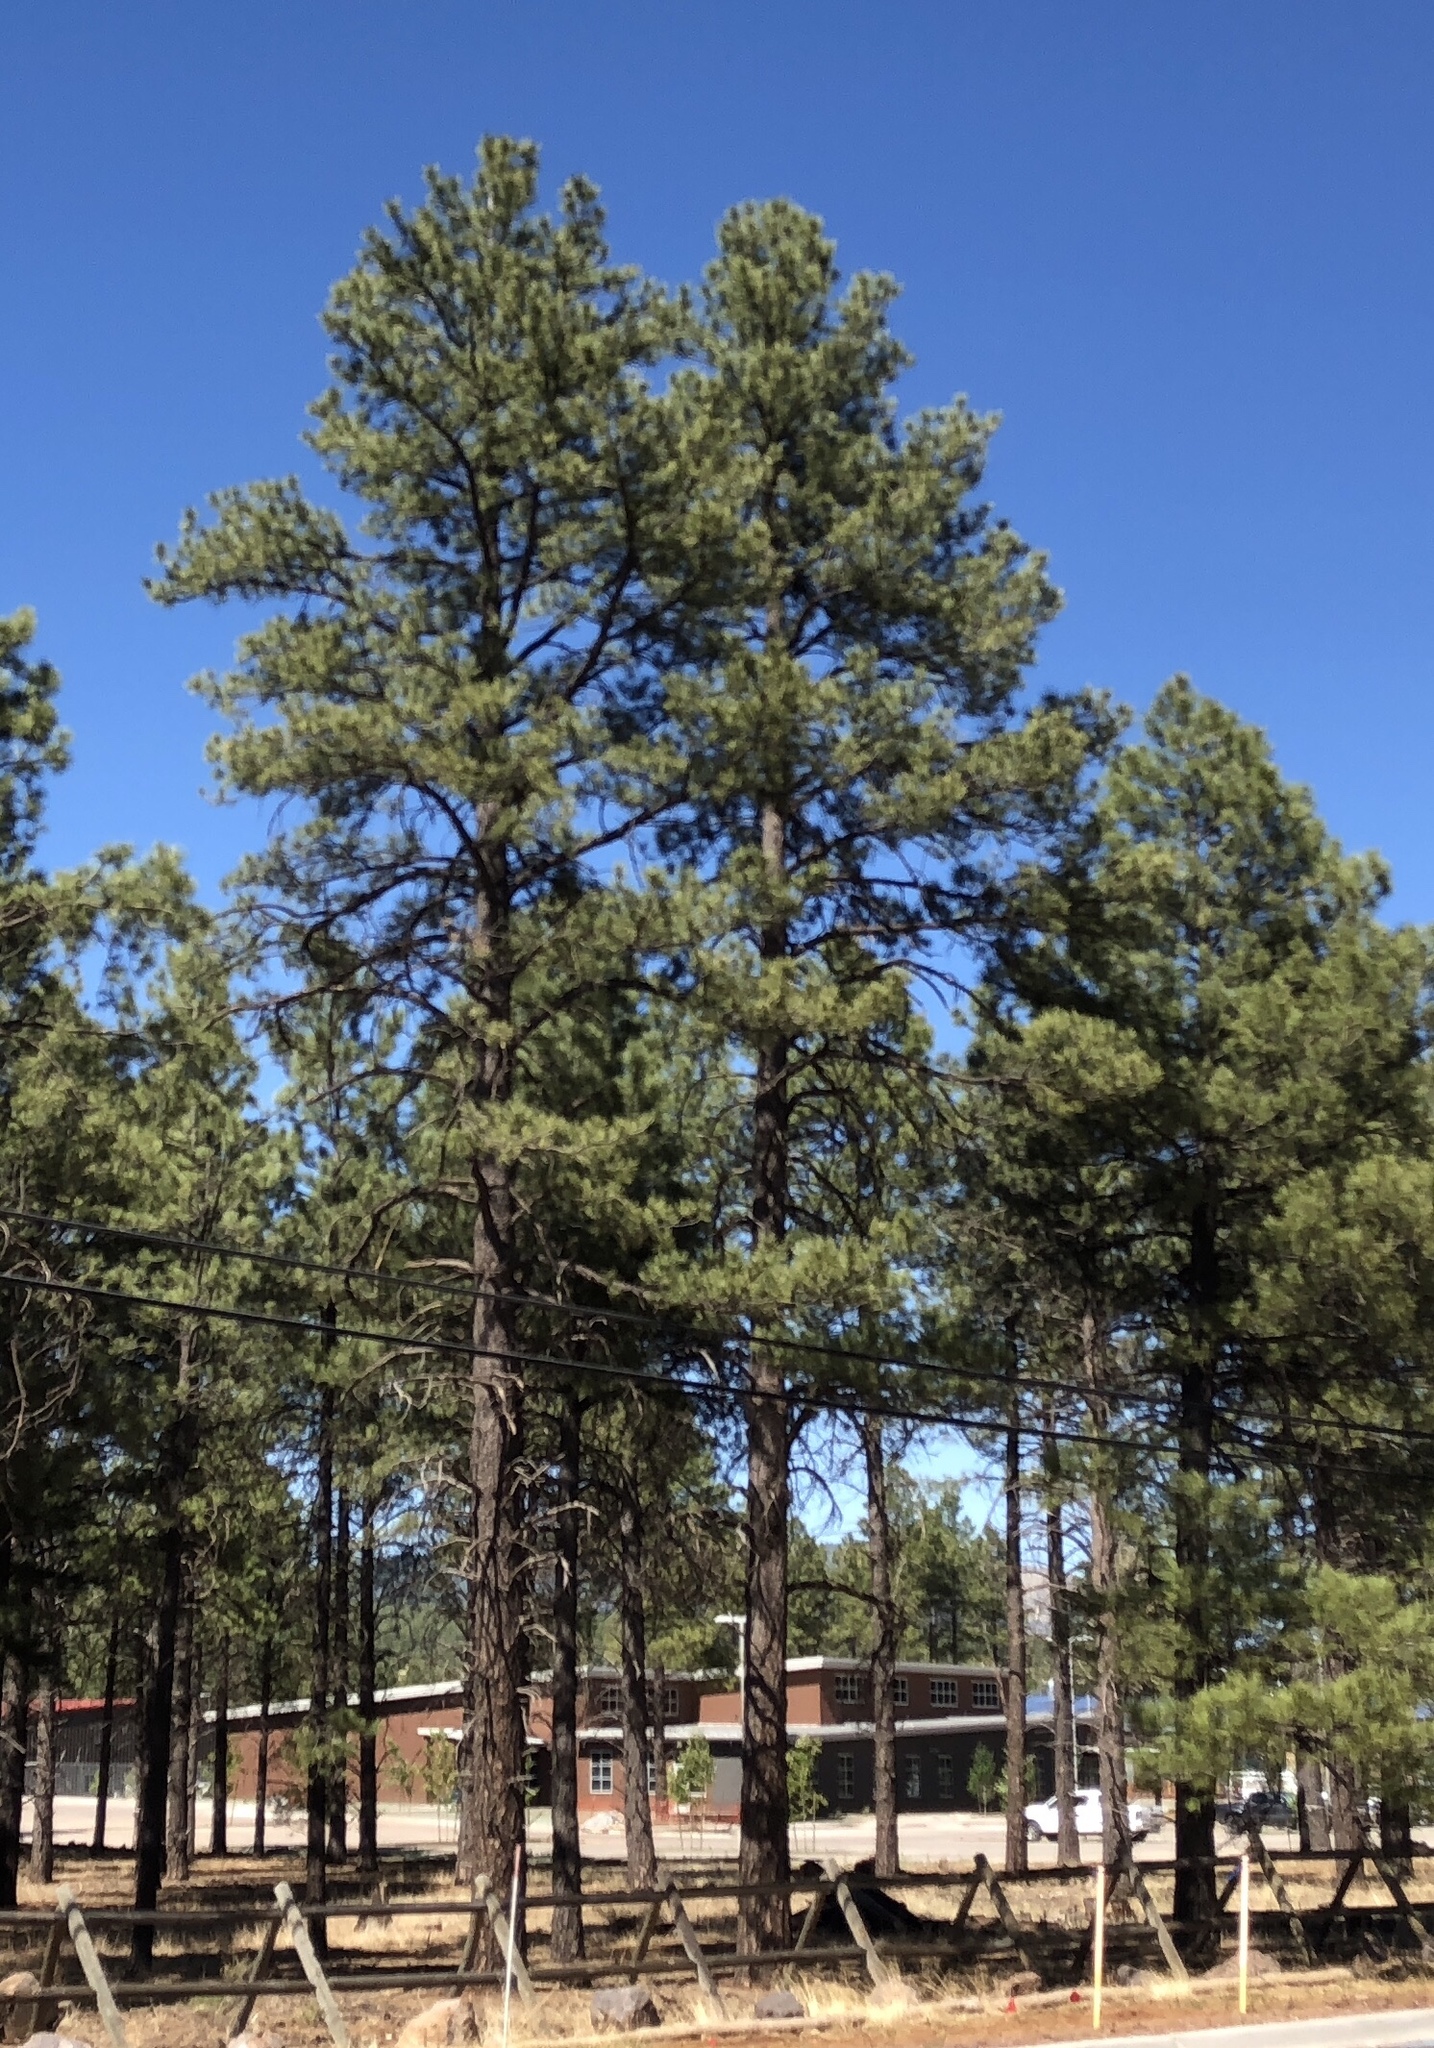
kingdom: Plantae
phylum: Tracheophyta
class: Pinopsida
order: Pinales
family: Pinaceae
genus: Pinus
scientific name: Pinus ponderosa
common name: Western yellow-pine
